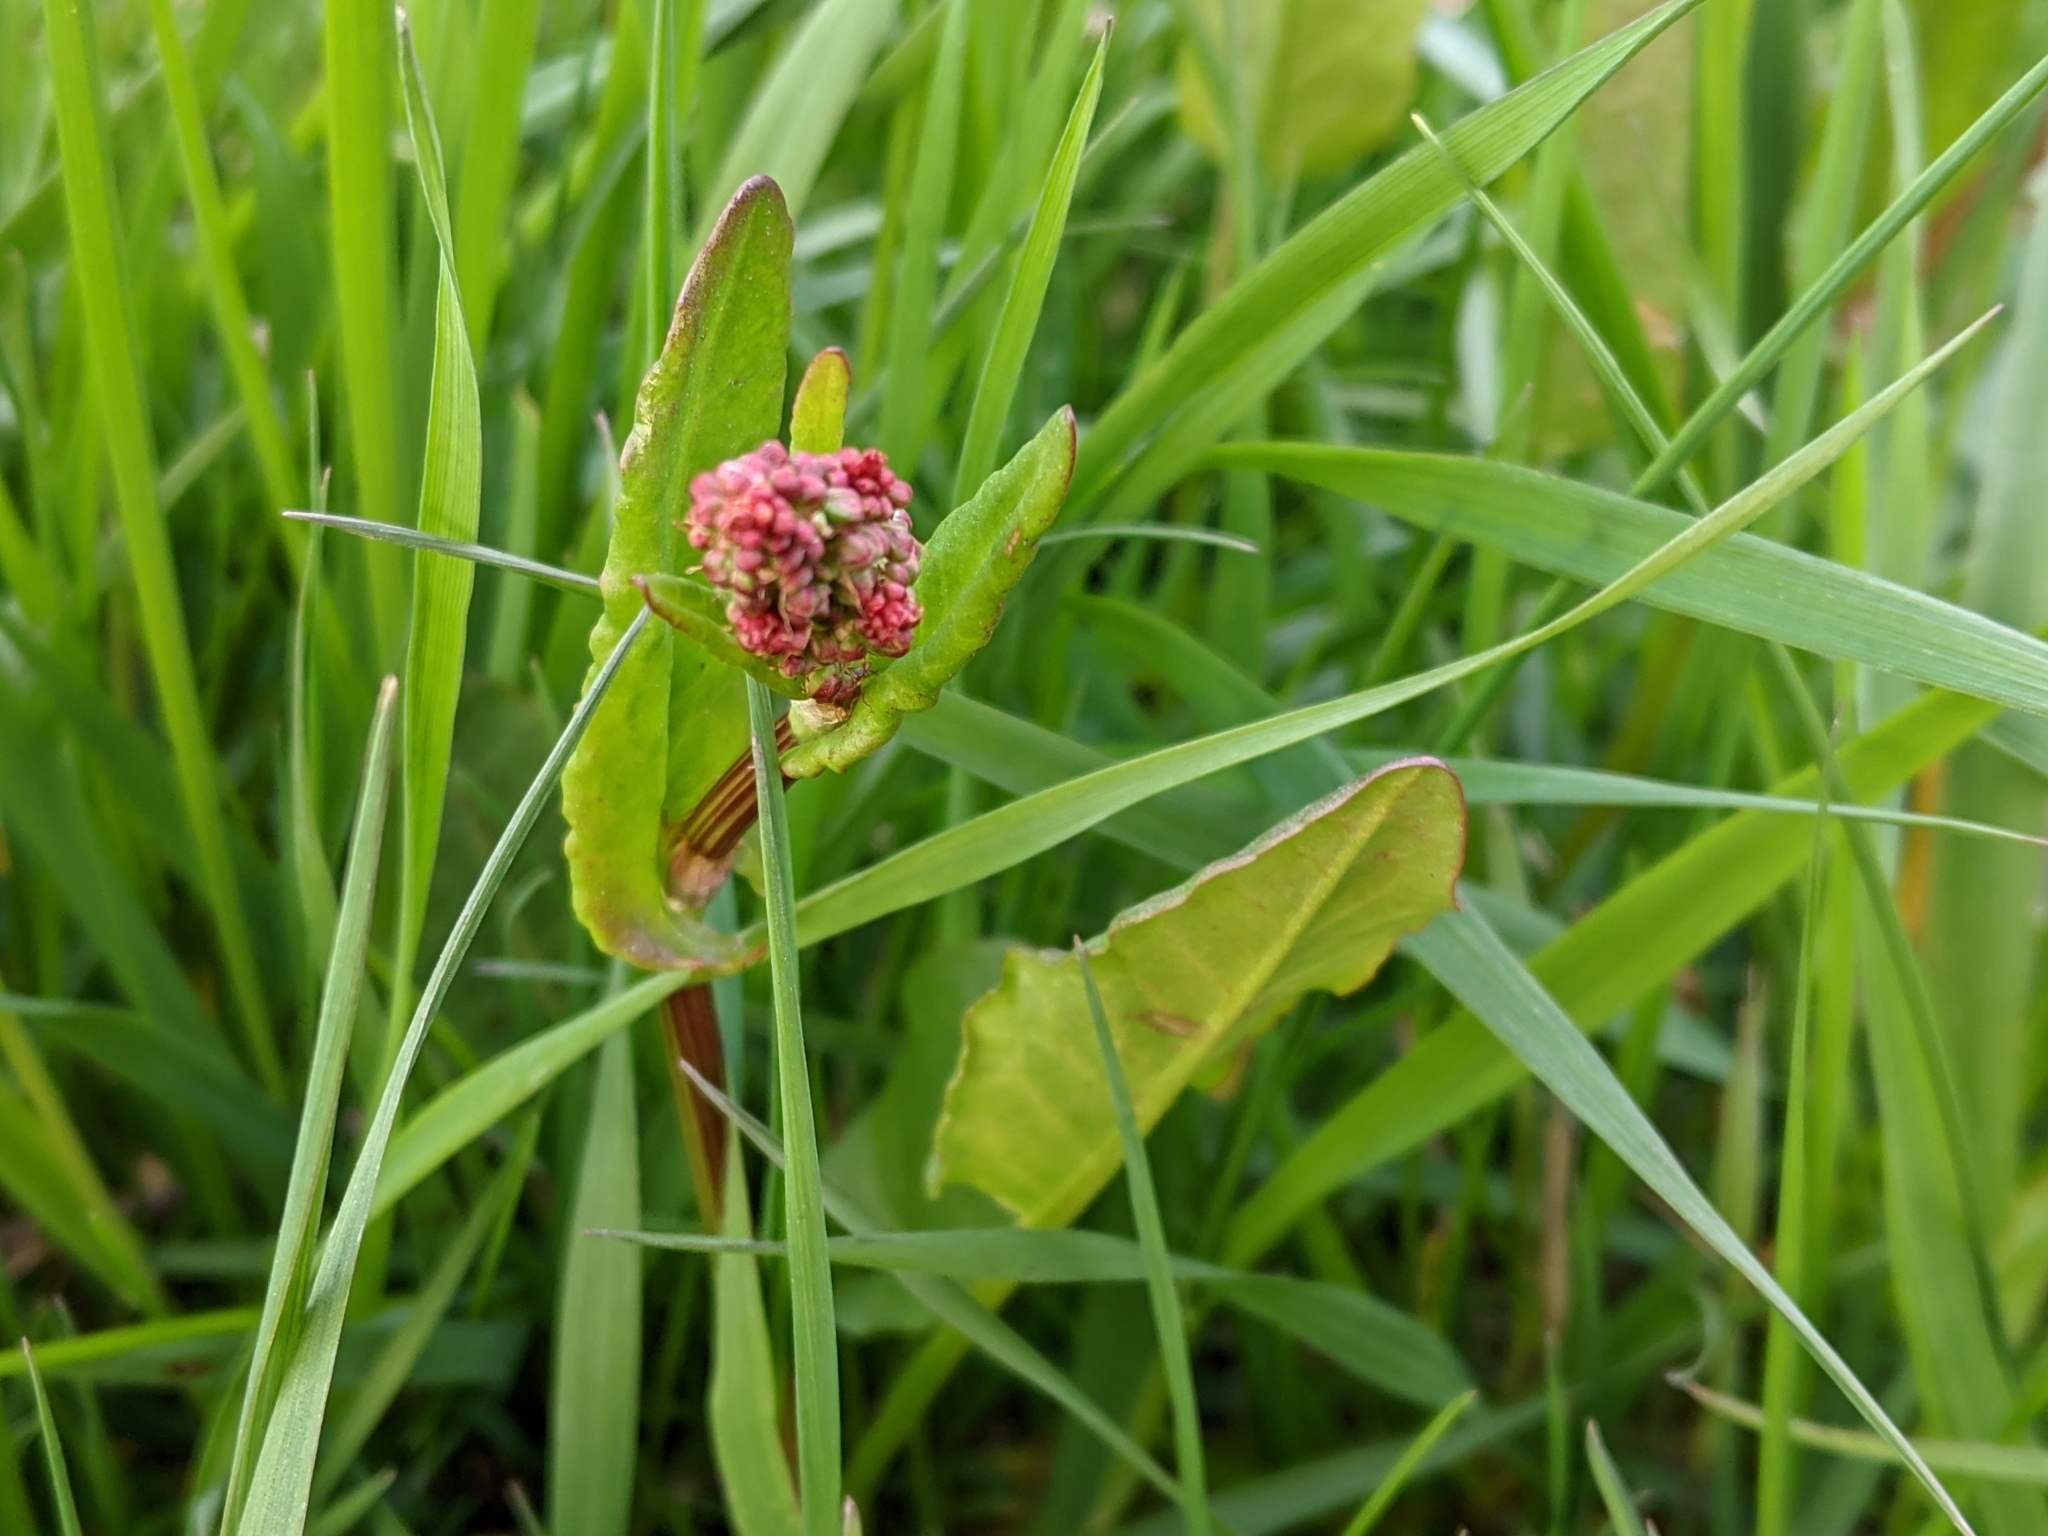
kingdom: Plantae
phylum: Tracheophyta
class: Magnoliopsida
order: Caryophyllales
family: Polygonaceae
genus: Rumex
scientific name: Rumex acetosa
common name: Garden sorrel
